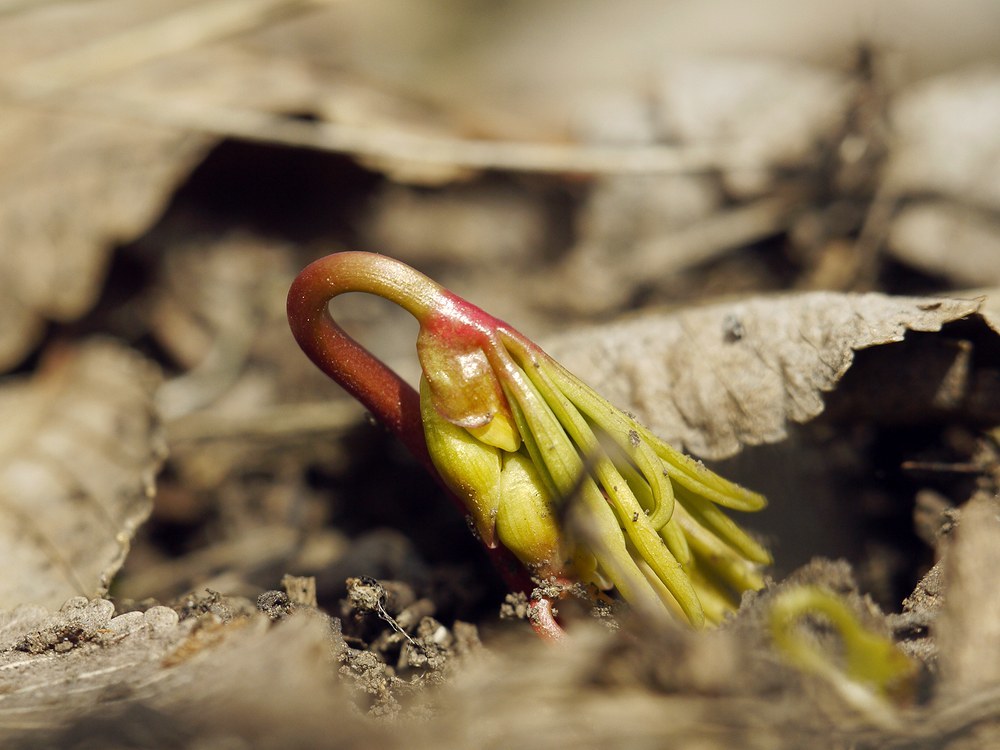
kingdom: Plantae
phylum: Tracheophyta
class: Magnoliopsida
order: Ranunculales
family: Berberidaceae
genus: Gymnospermium
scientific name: Gymnospermium odessanum
